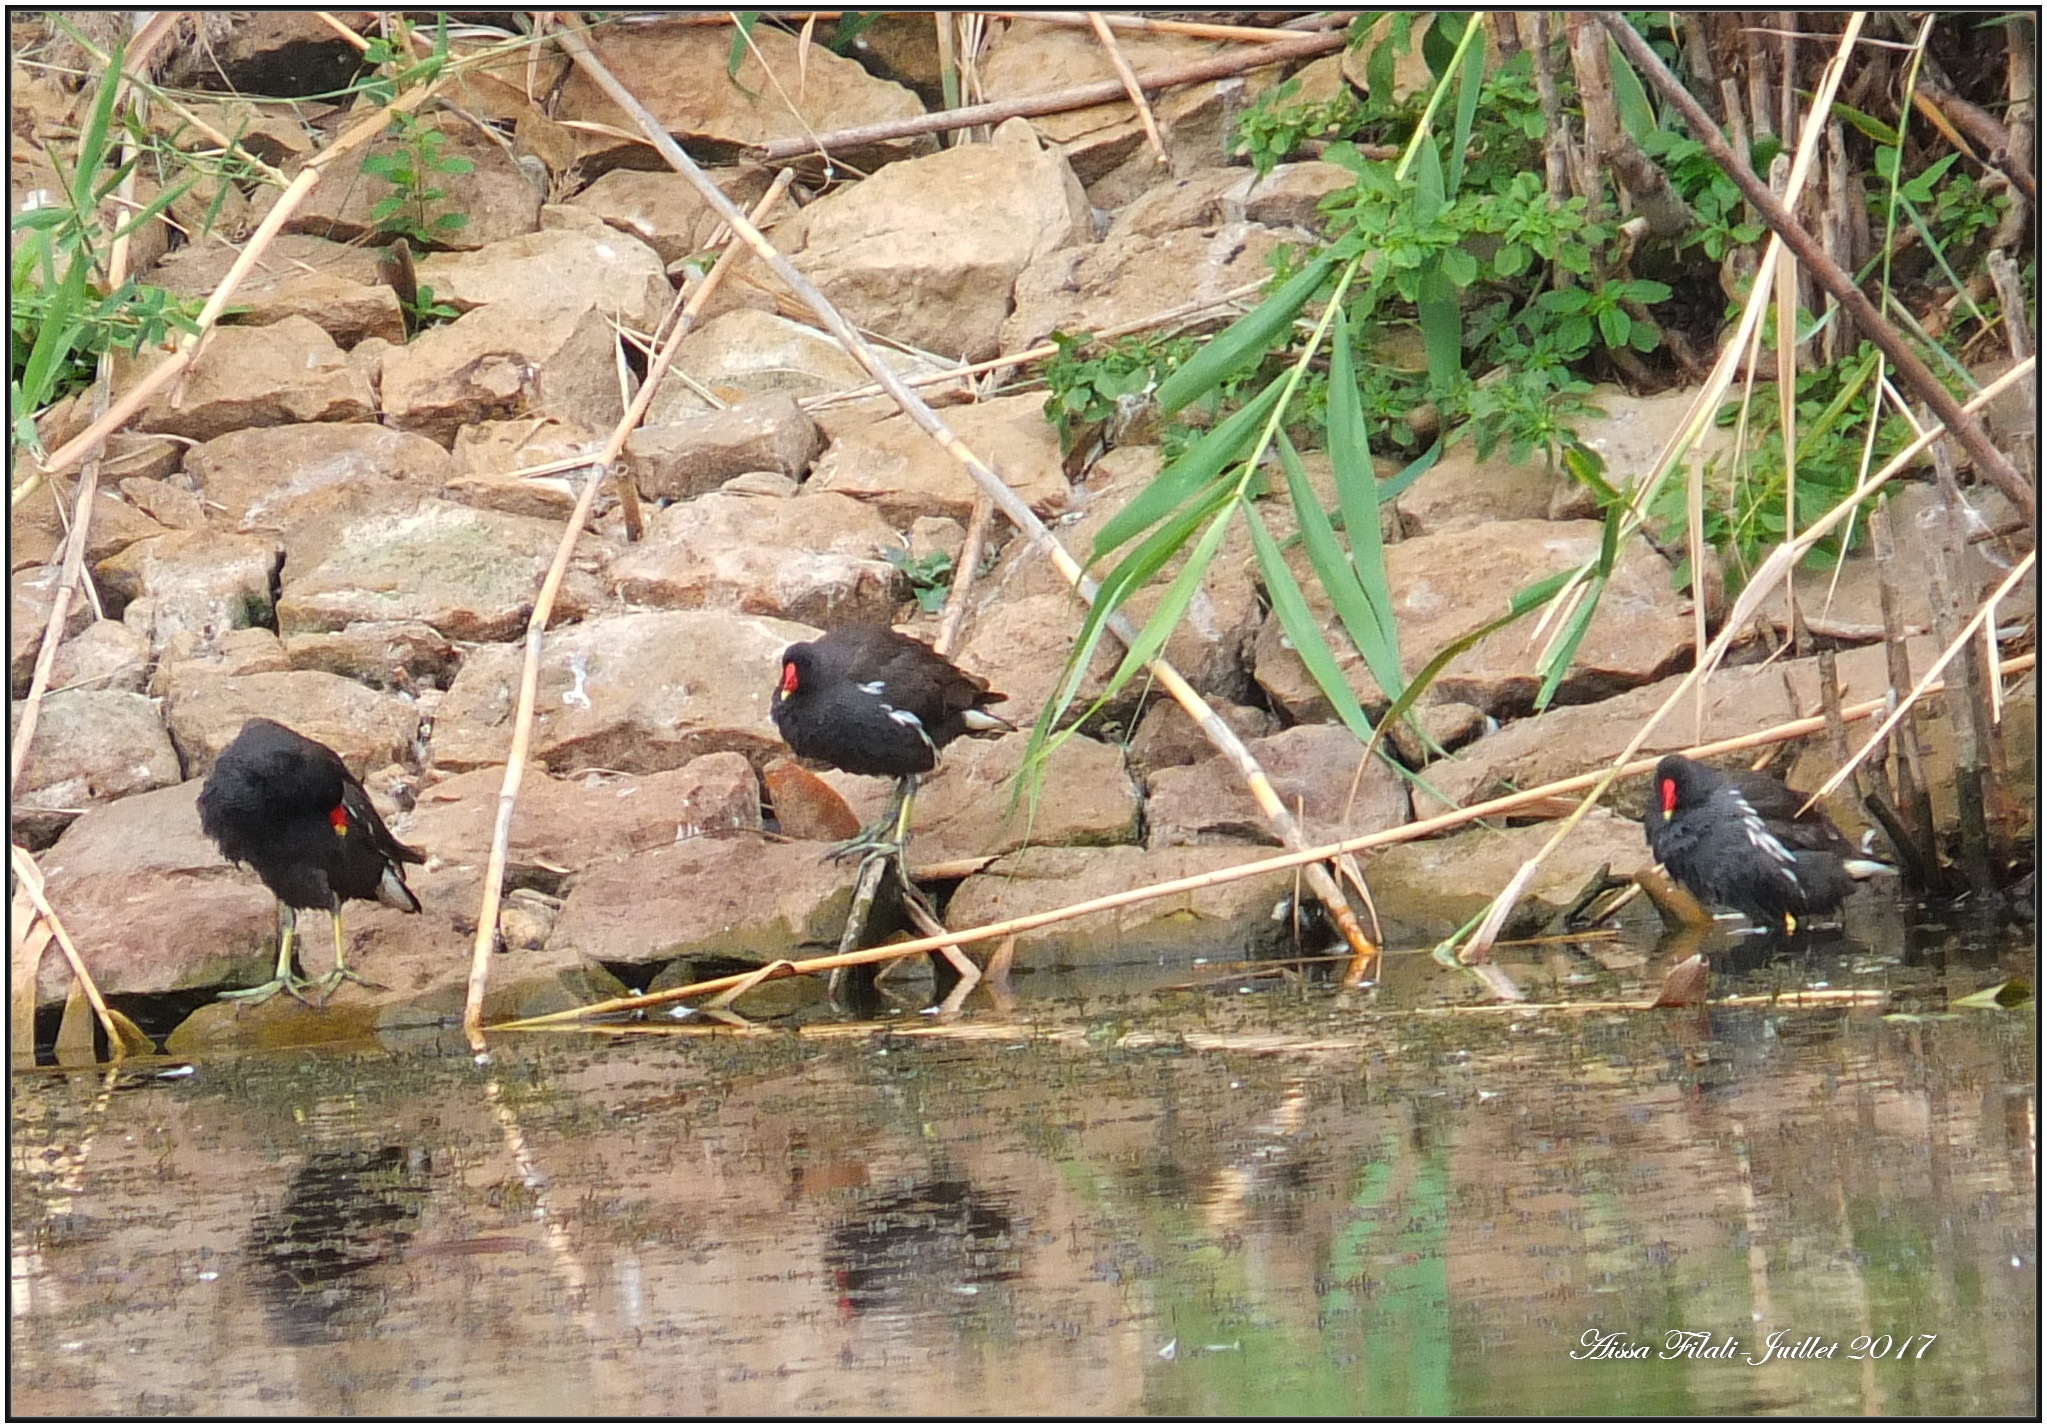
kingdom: Animalia
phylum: Chordata
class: Aves
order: Gruiformes
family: Rallidae
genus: Gallinula
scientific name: Gallinula chloropus
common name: Common moorhen
